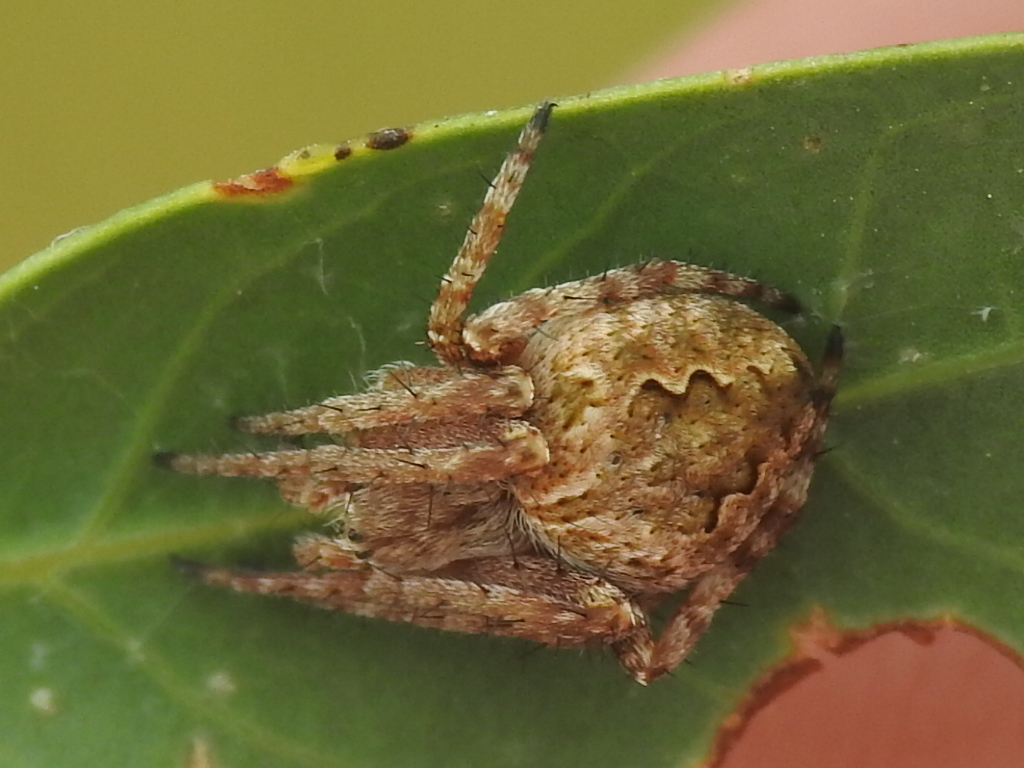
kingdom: Animalia
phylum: Arthropoda
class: Arachnida
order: Araneae
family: Araneidae
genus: Eustala
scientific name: Eustala anastera
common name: Orb weavers
